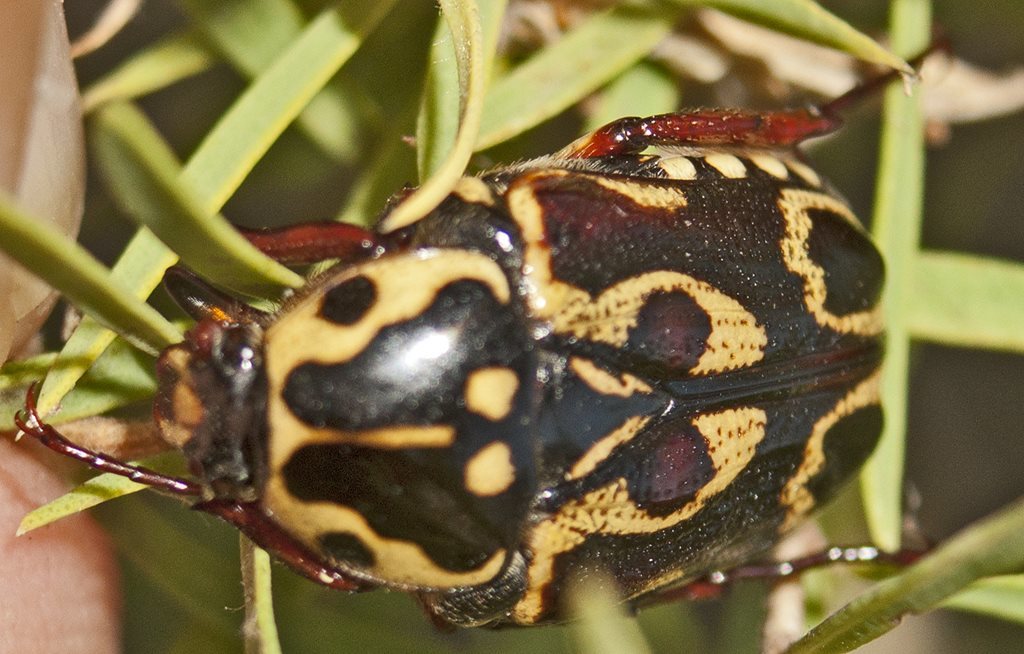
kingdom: Animalia
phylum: Arthropoda
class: Insecta
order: Coleoptera
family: Scarabaeidae
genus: Lyraphora
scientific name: Lyraphora obliquata
